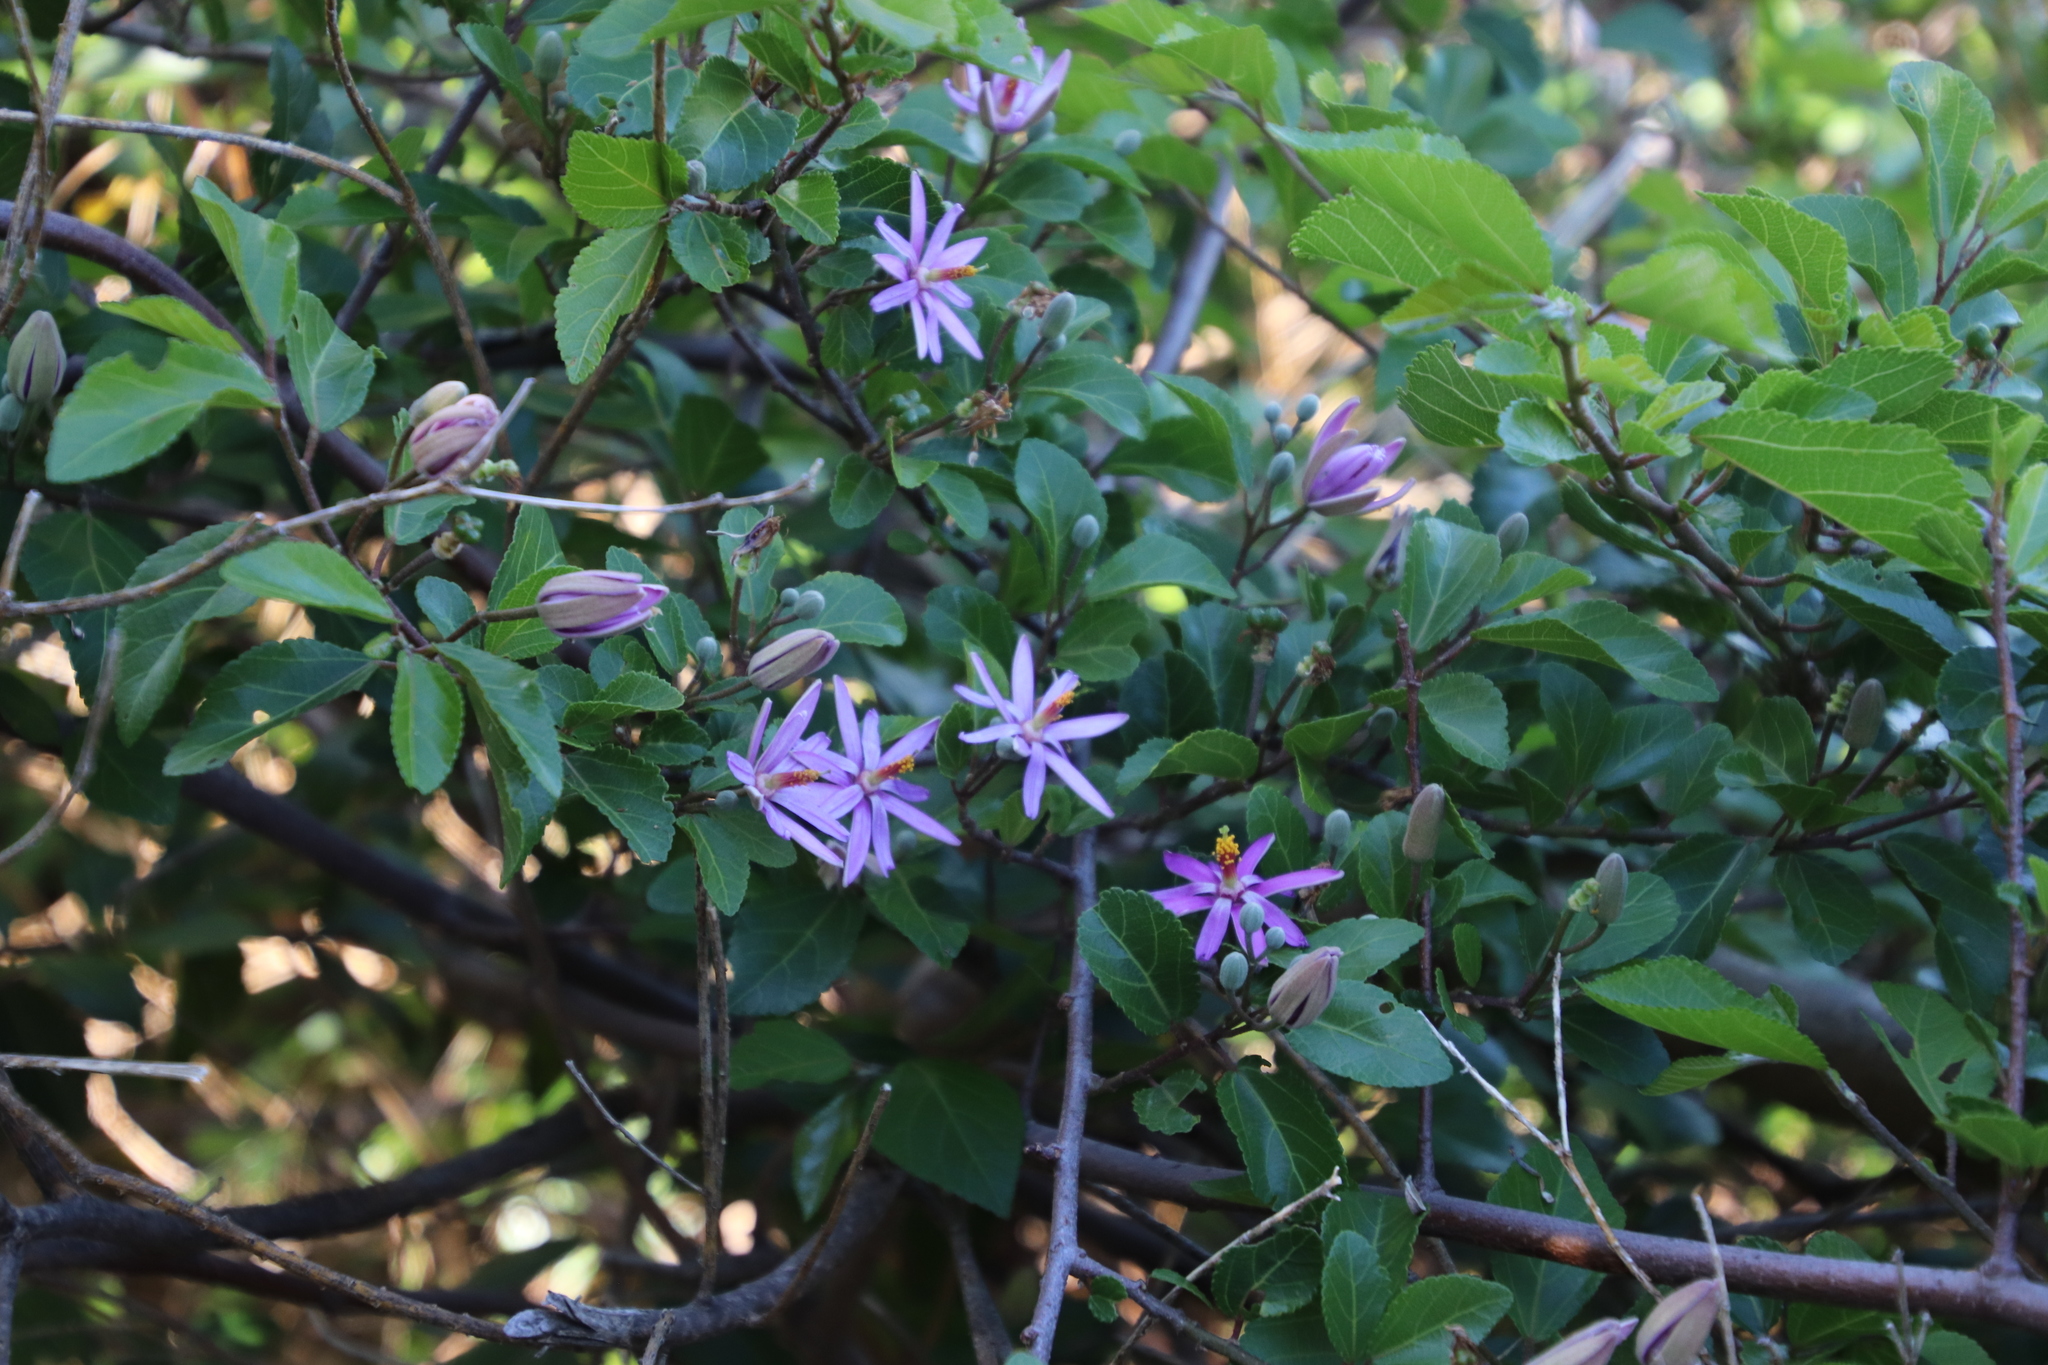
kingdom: Plantae
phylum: Tracheophyta
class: Magnoliopsida
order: Malvales
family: Malvaceae
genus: Grewia
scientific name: Grewia occidentalis
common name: Crossberry
